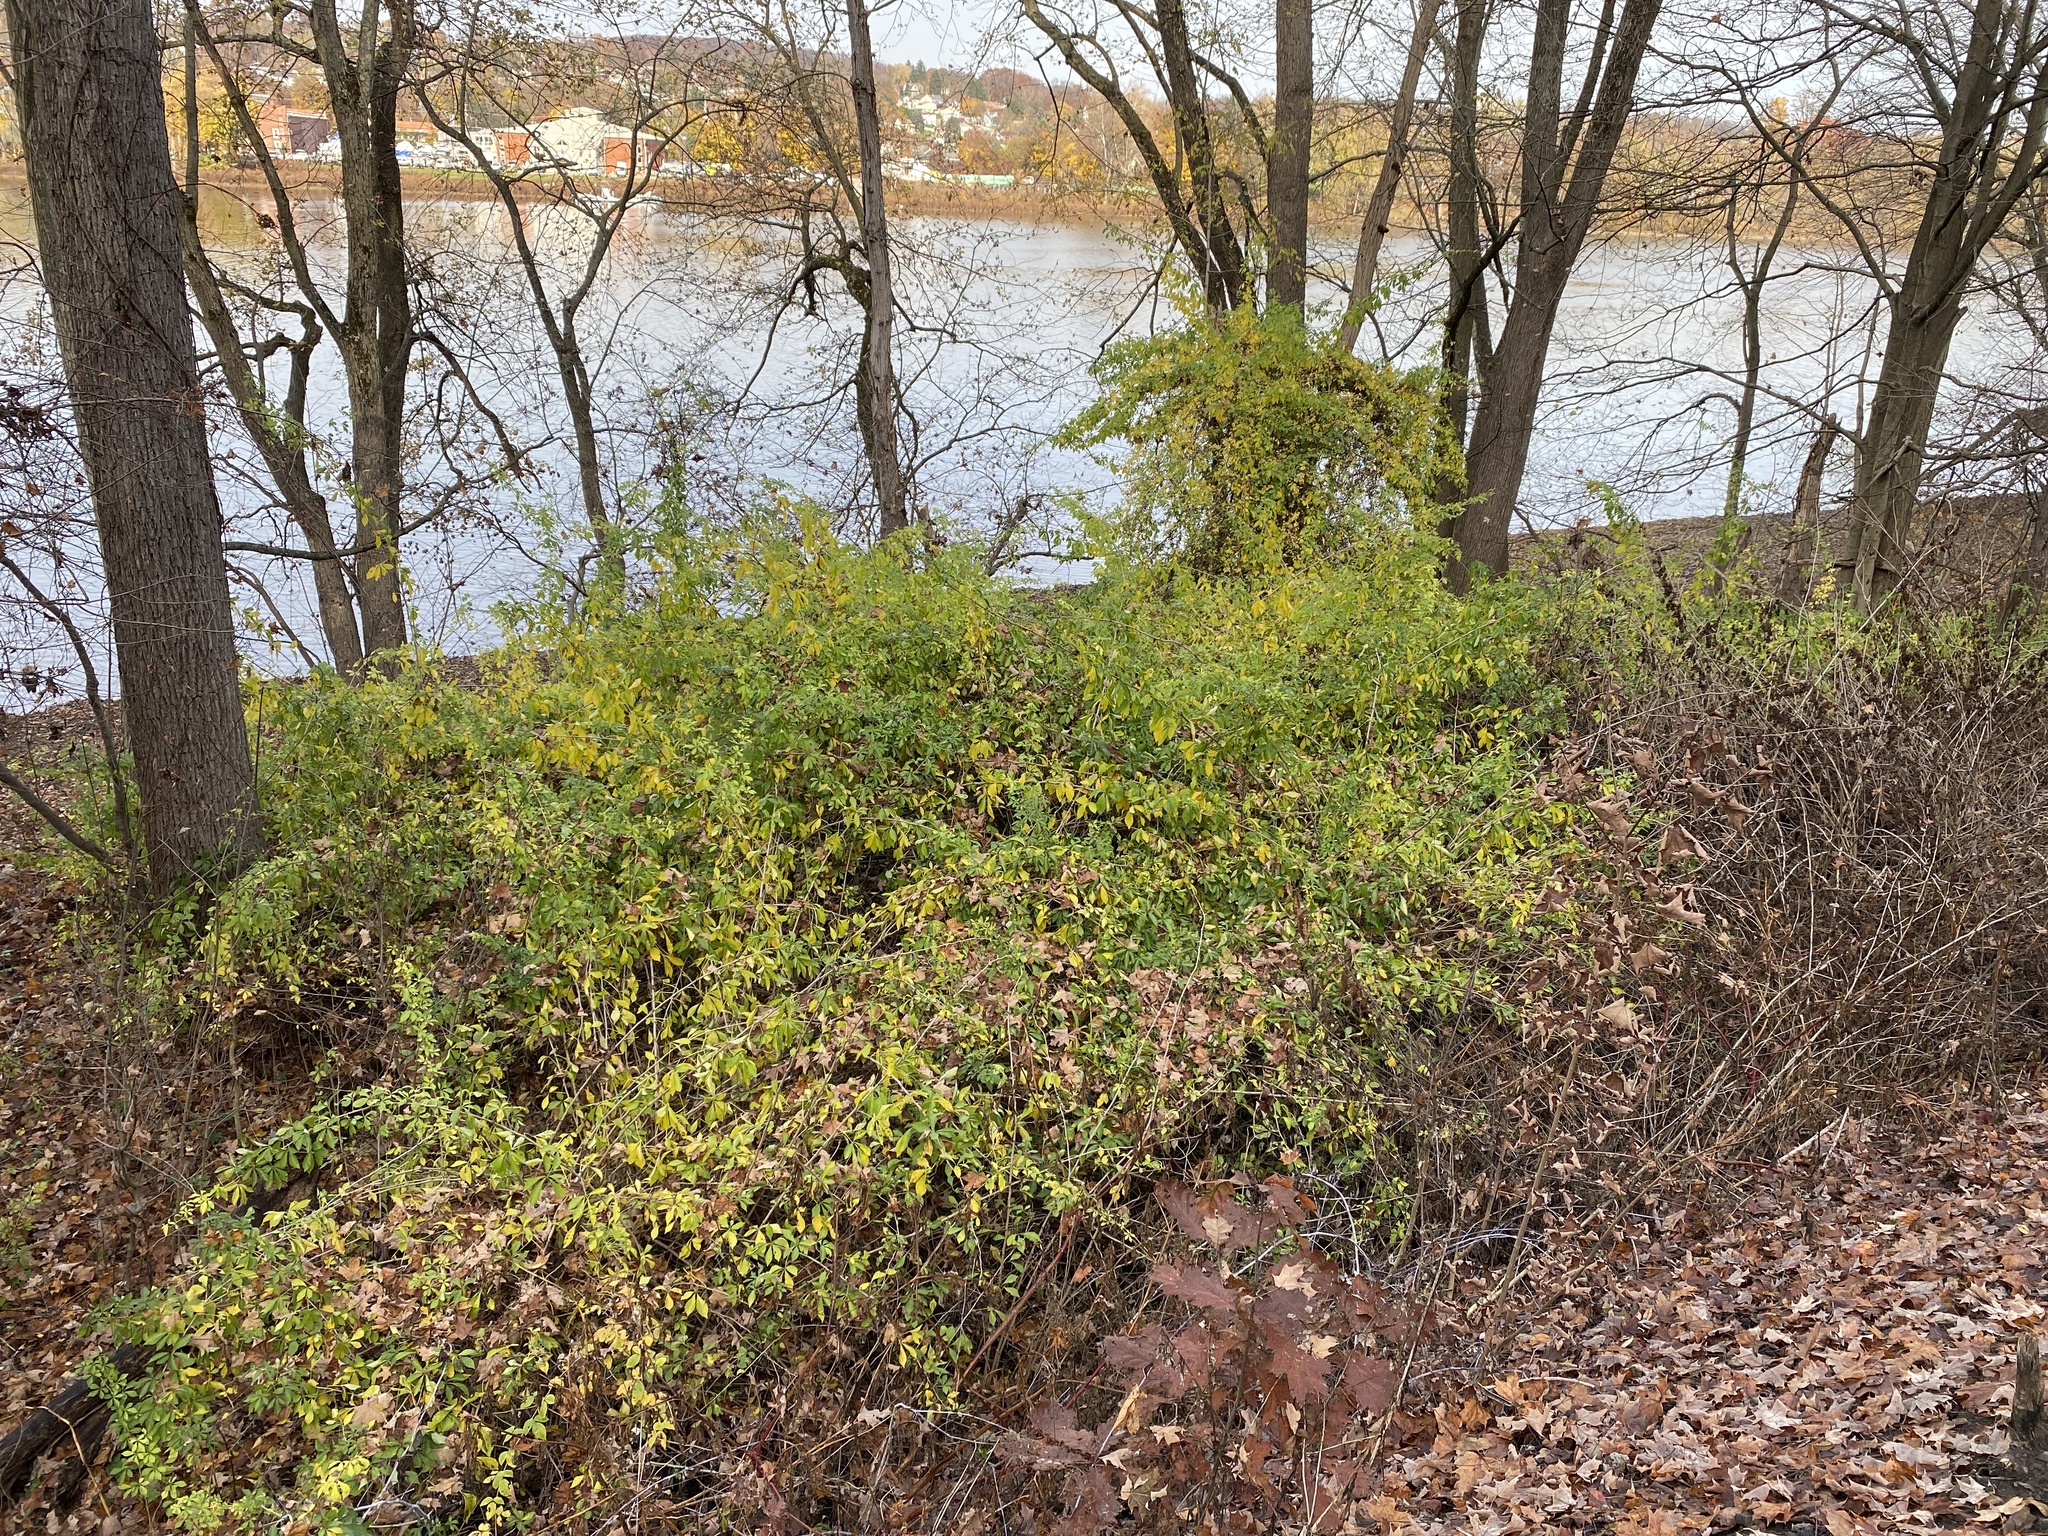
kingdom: Plantae
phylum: Tracheophyta
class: Magnoliopsida
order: Apiales
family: Araliaceae
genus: Eleutherococcus
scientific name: Eleutherococcus sieboldianus
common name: Ginseng
